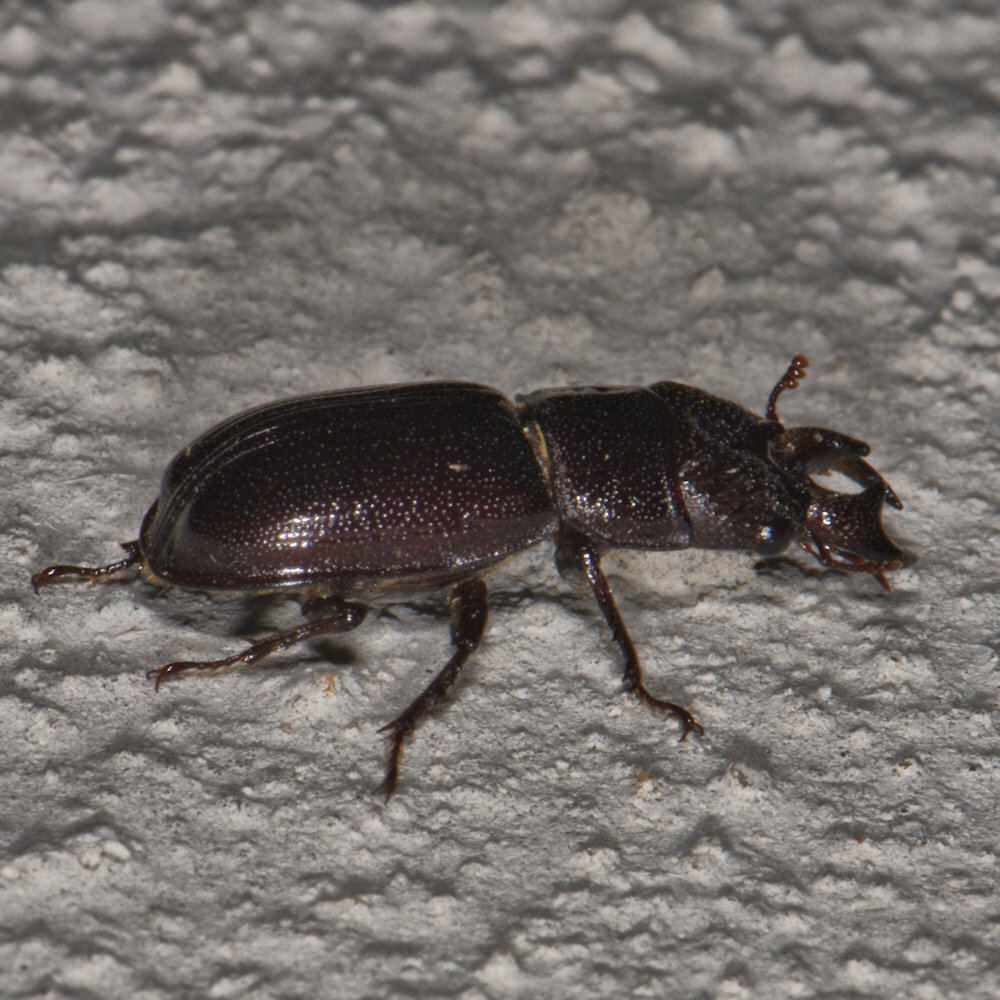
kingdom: Animalia
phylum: Arthropoda
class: Insecta
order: Coleoptera
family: Lucanidae
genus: Ceruchus
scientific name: Ceruchus piceus
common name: Red-rot decay stag beetle
